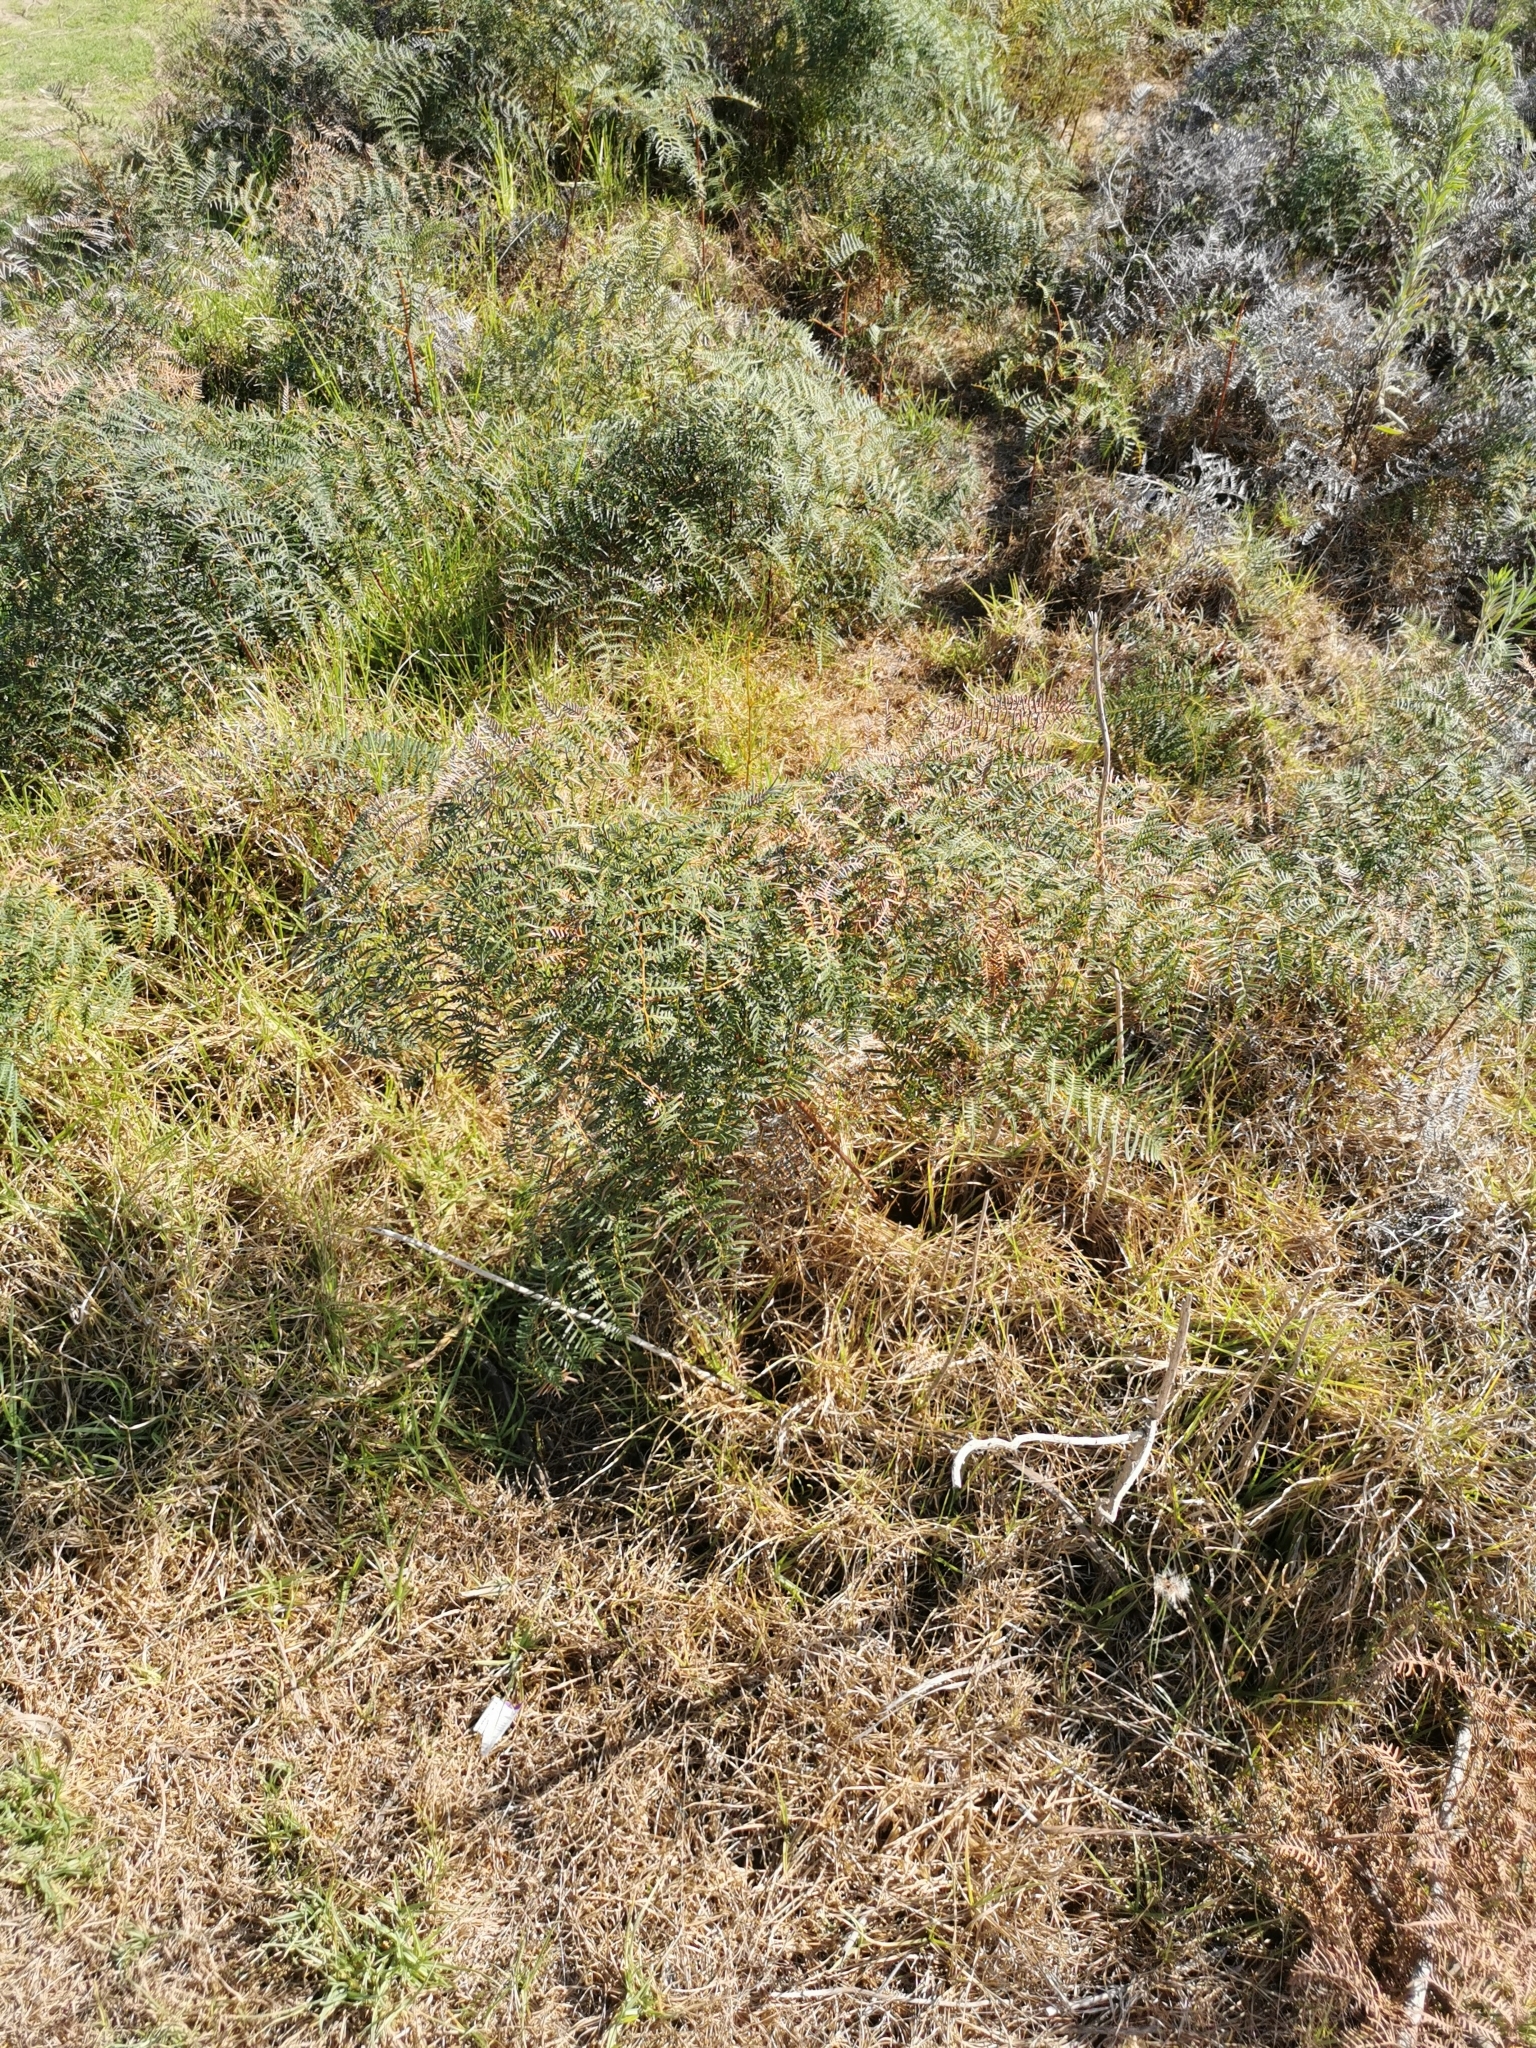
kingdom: Plantae
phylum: Tracheophyta
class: Polypodiopsida
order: Polypodiales
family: Dennstaedtiaceae
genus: Pteridium
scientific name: Pteridium esculentum
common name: Bracken fern
